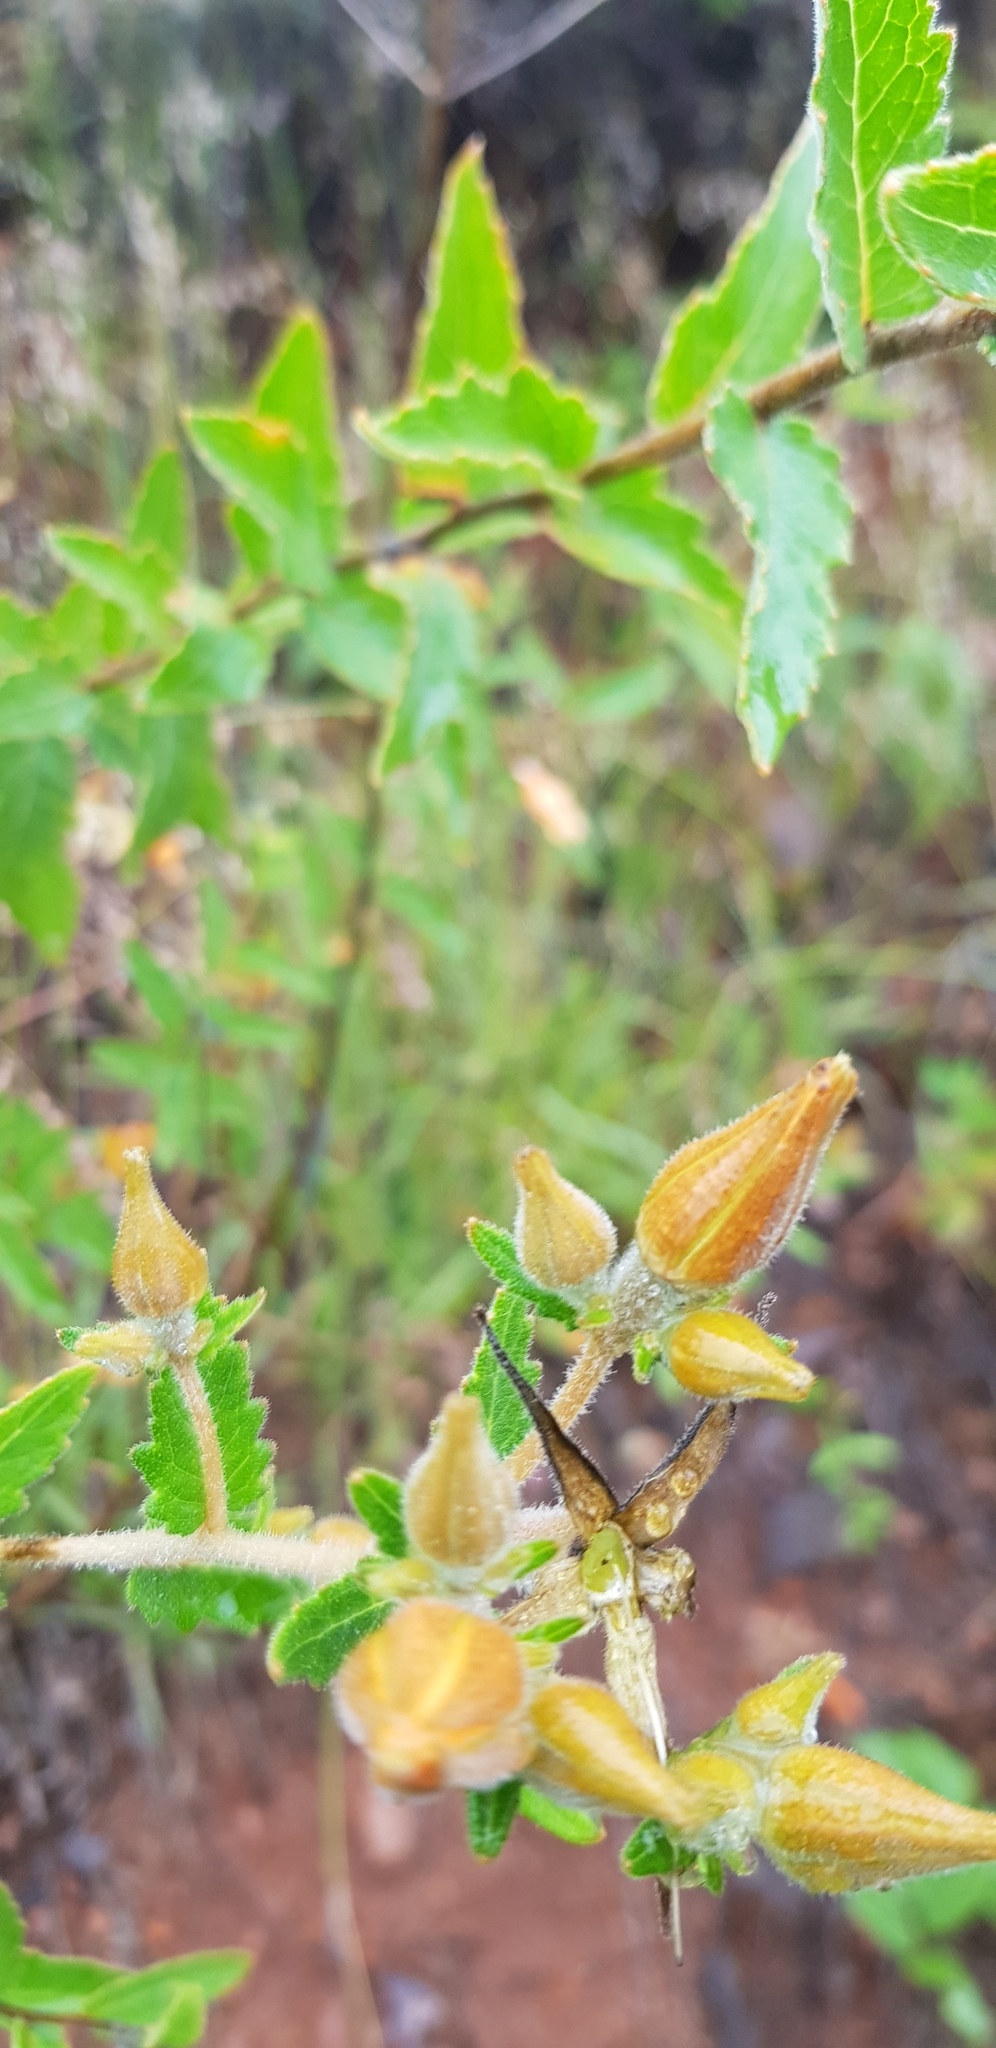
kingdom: Plantae
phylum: Tracheophyta
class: Magnoliopsida
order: Cornales
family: Loasaceae
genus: Mentzelia
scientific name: Mentzelia hispida
